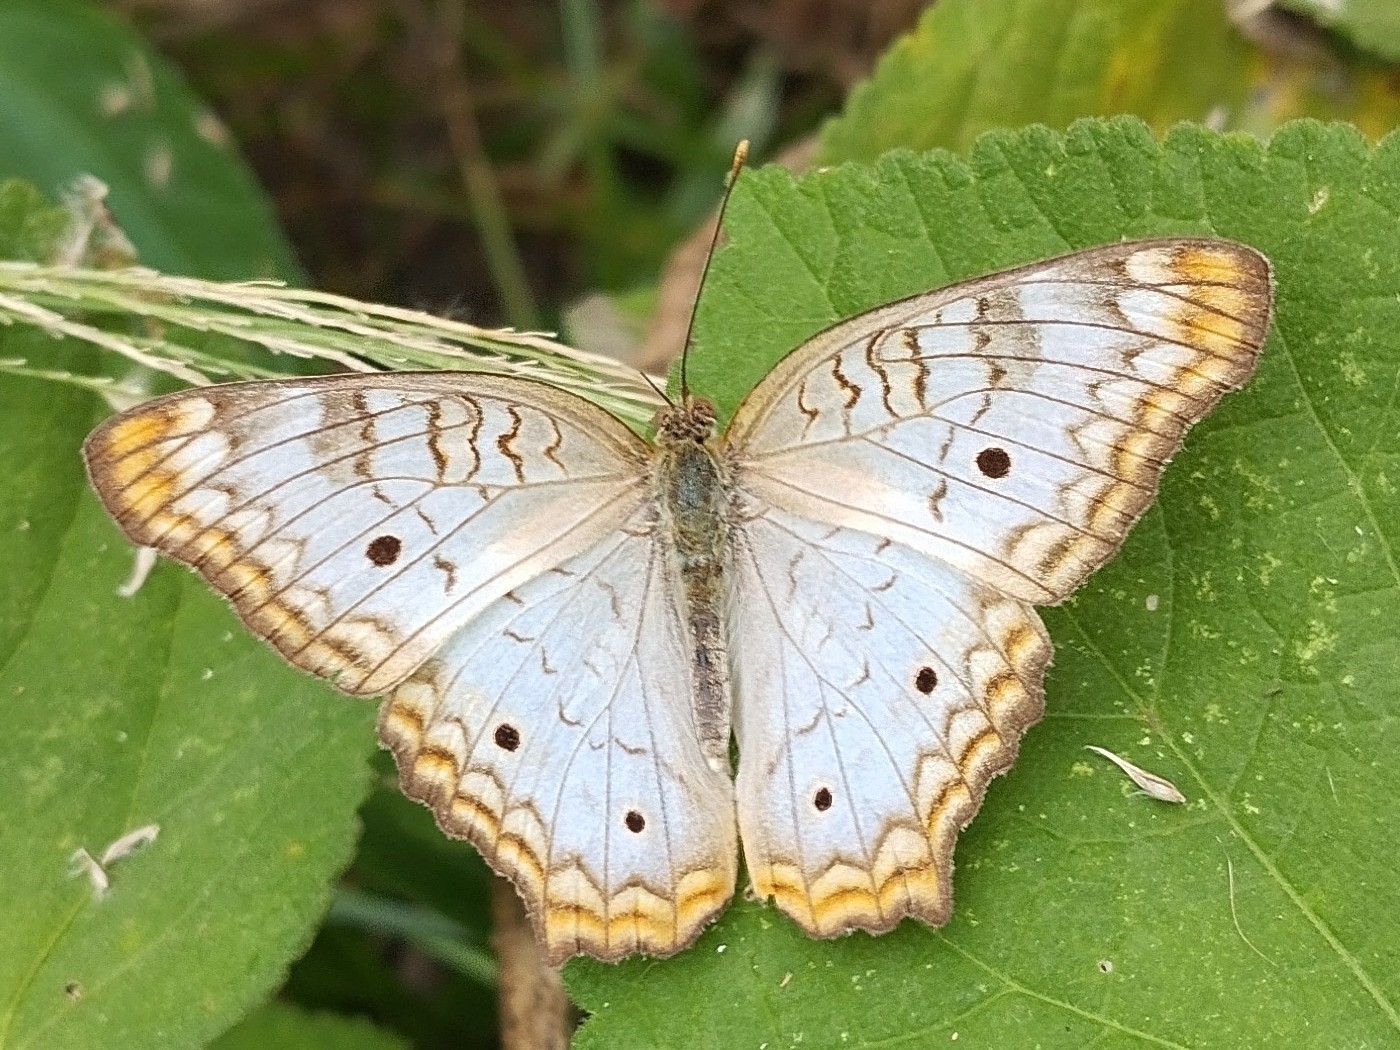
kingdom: Animalia
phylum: Arthropoda
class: Insecta
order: Lepidoptera
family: Nymphalidae
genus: Anartia
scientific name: Anartia jatrophae
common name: White peacock
